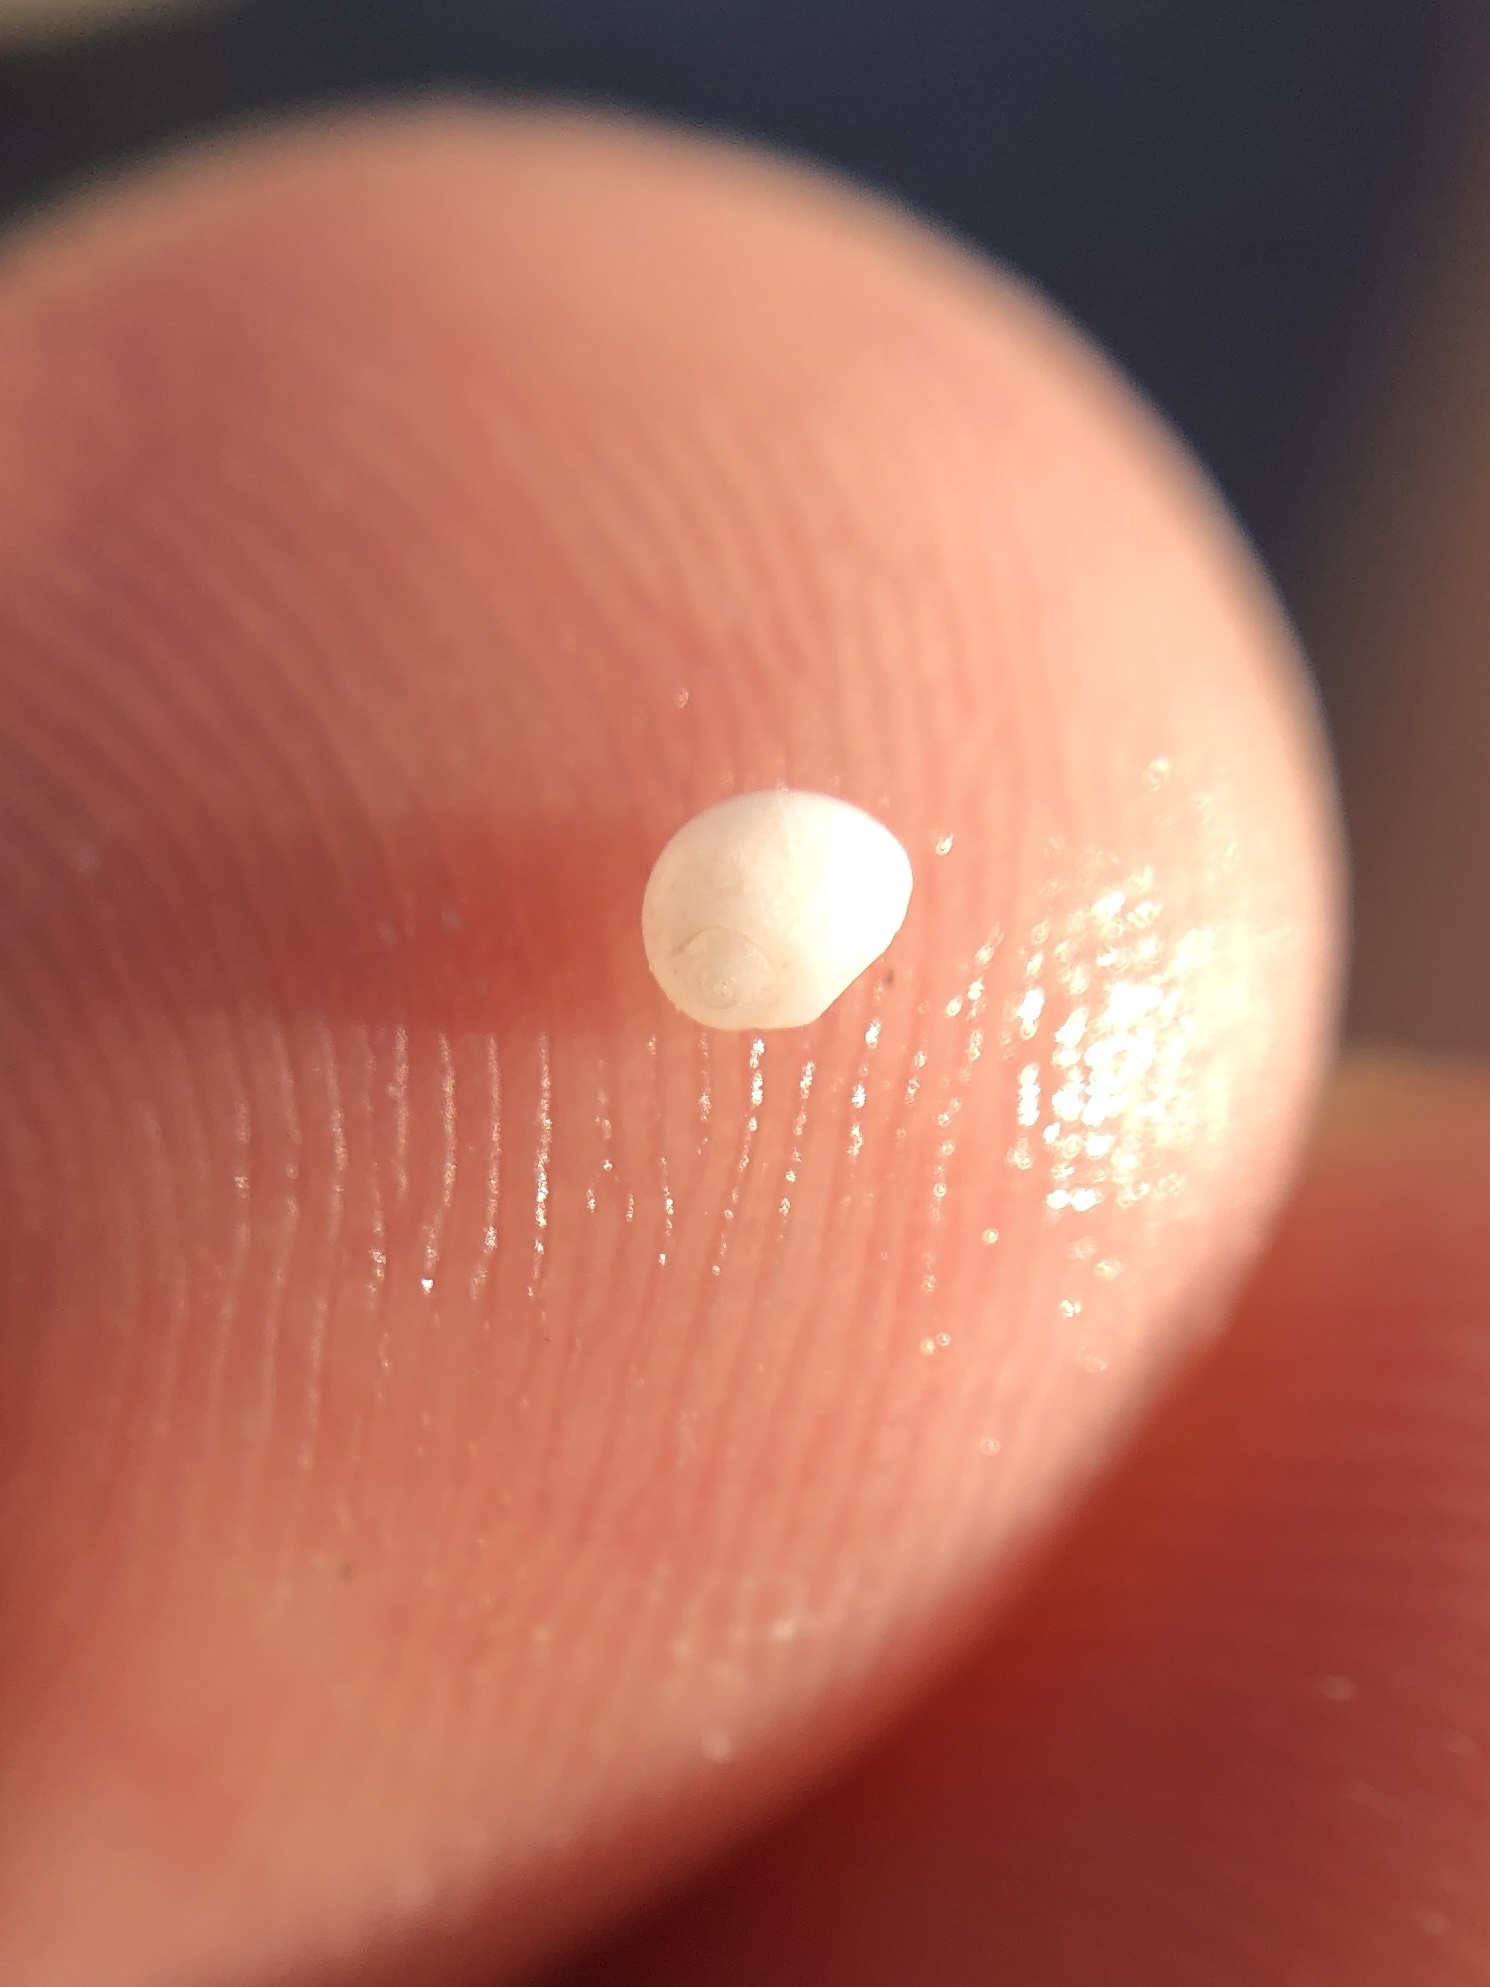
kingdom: Animalia
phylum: Mollusca
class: Gastropoda
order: Littorinimorpha
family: Naticidae
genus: Tectonatica
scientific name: Tectonatica pusilla
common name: Miniature moonsnail
